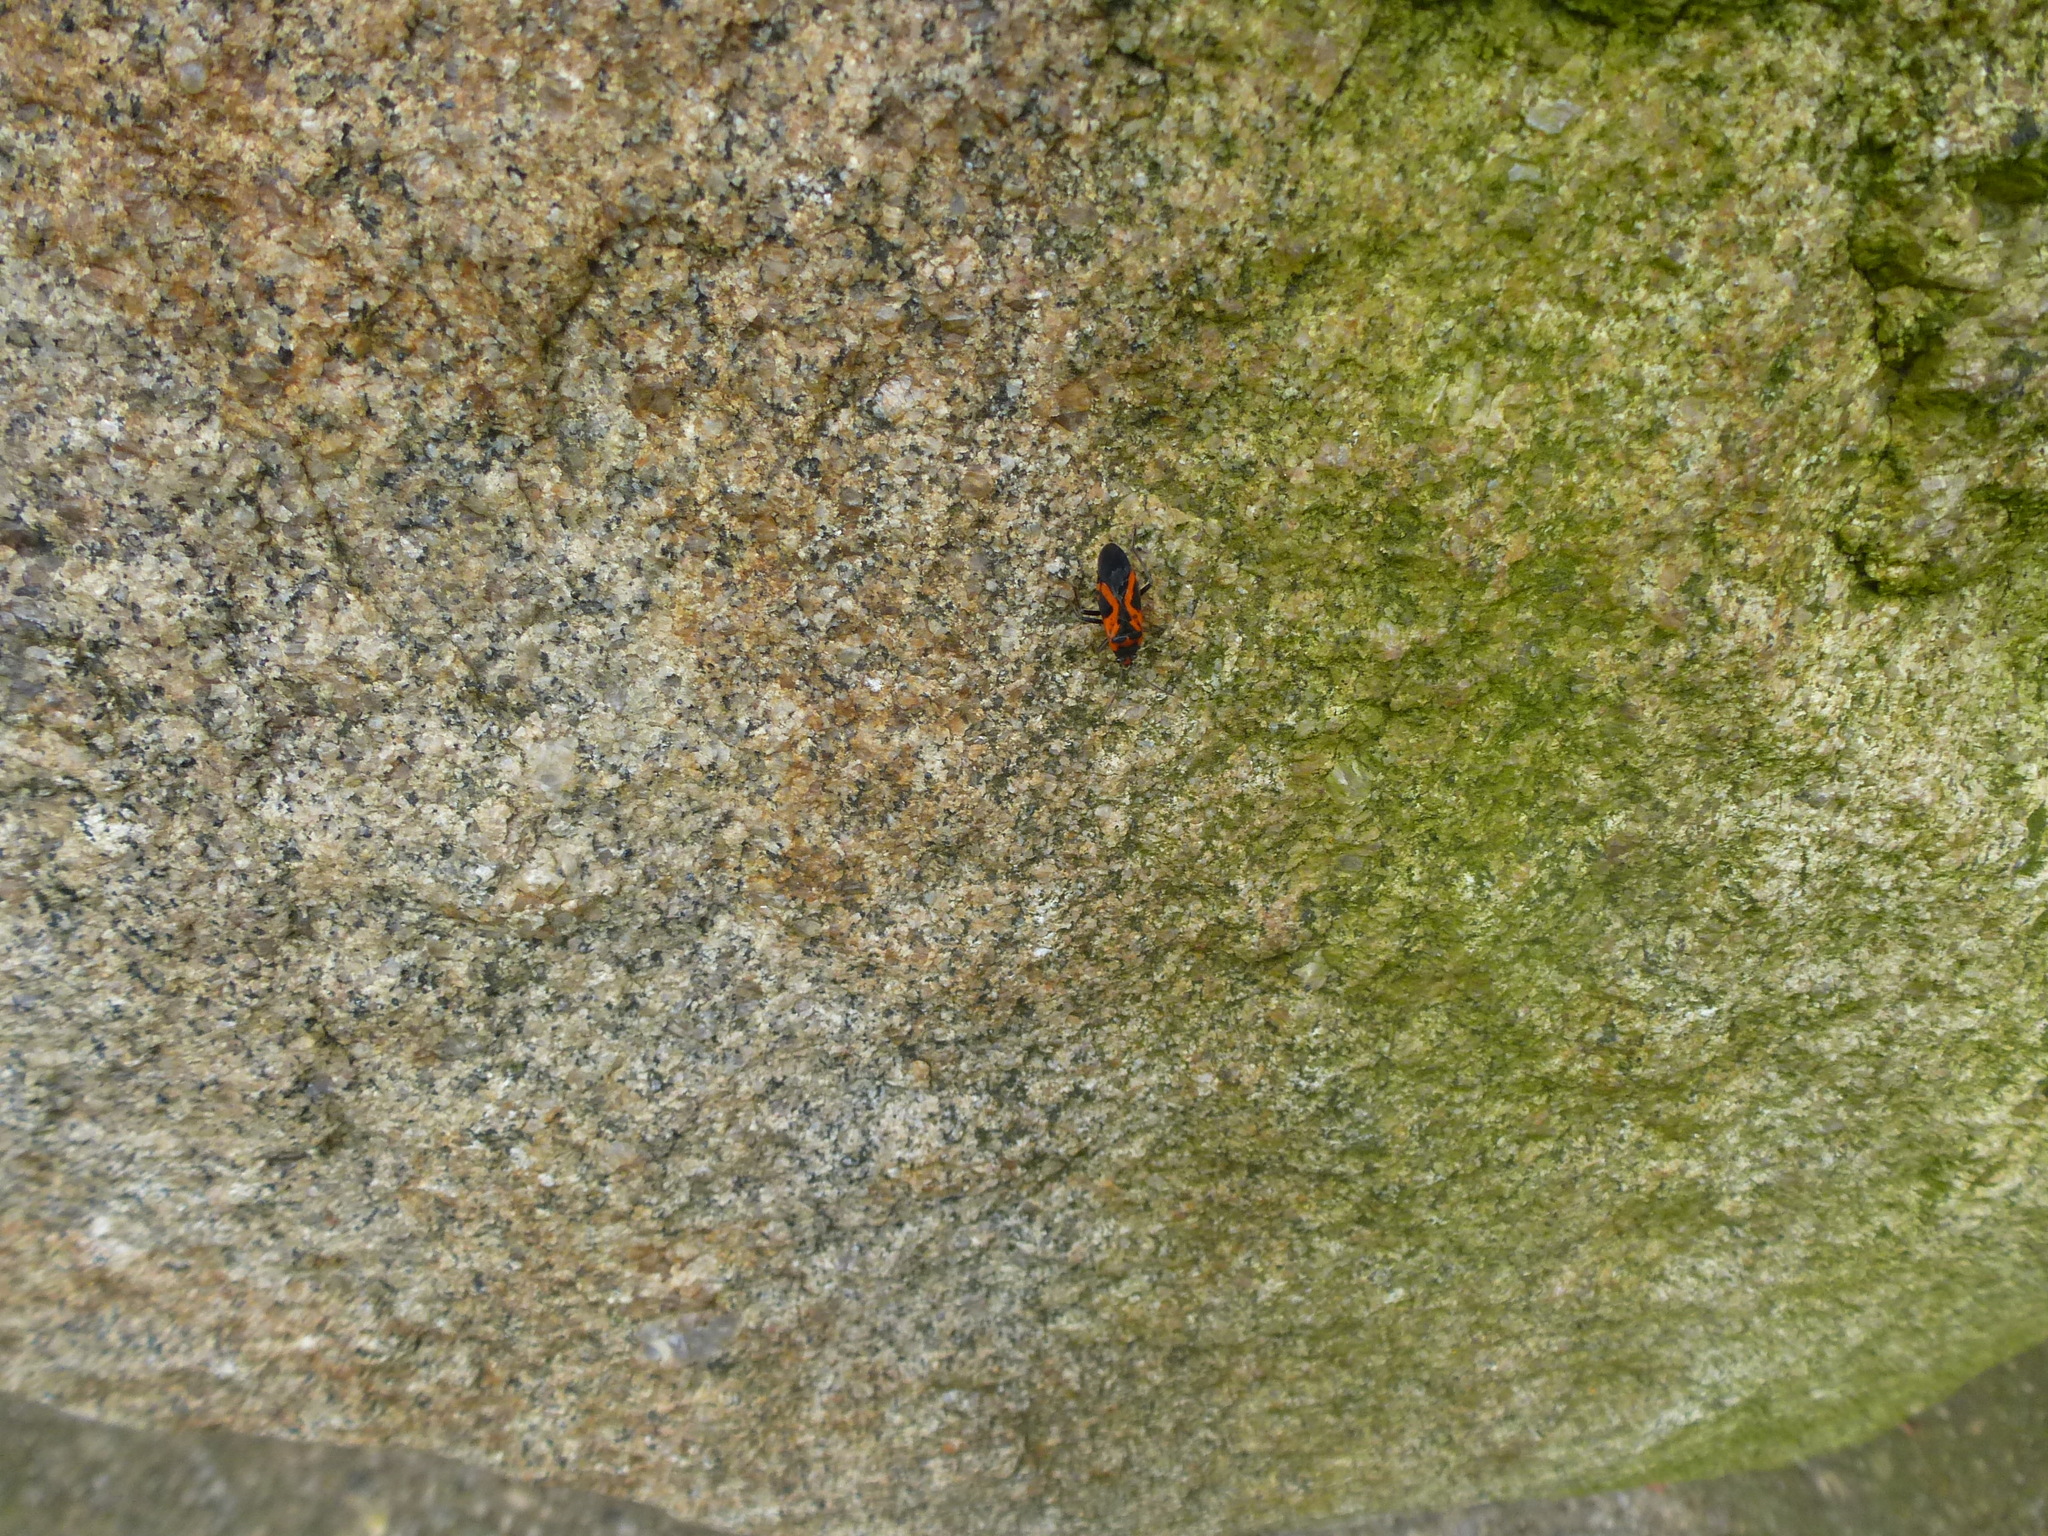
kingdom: Animalia
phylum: Arthropoda
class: Insecta
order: Hemiptera
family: Lygaeidae
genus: Lygaeus
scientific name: Lygaeus turcicus
